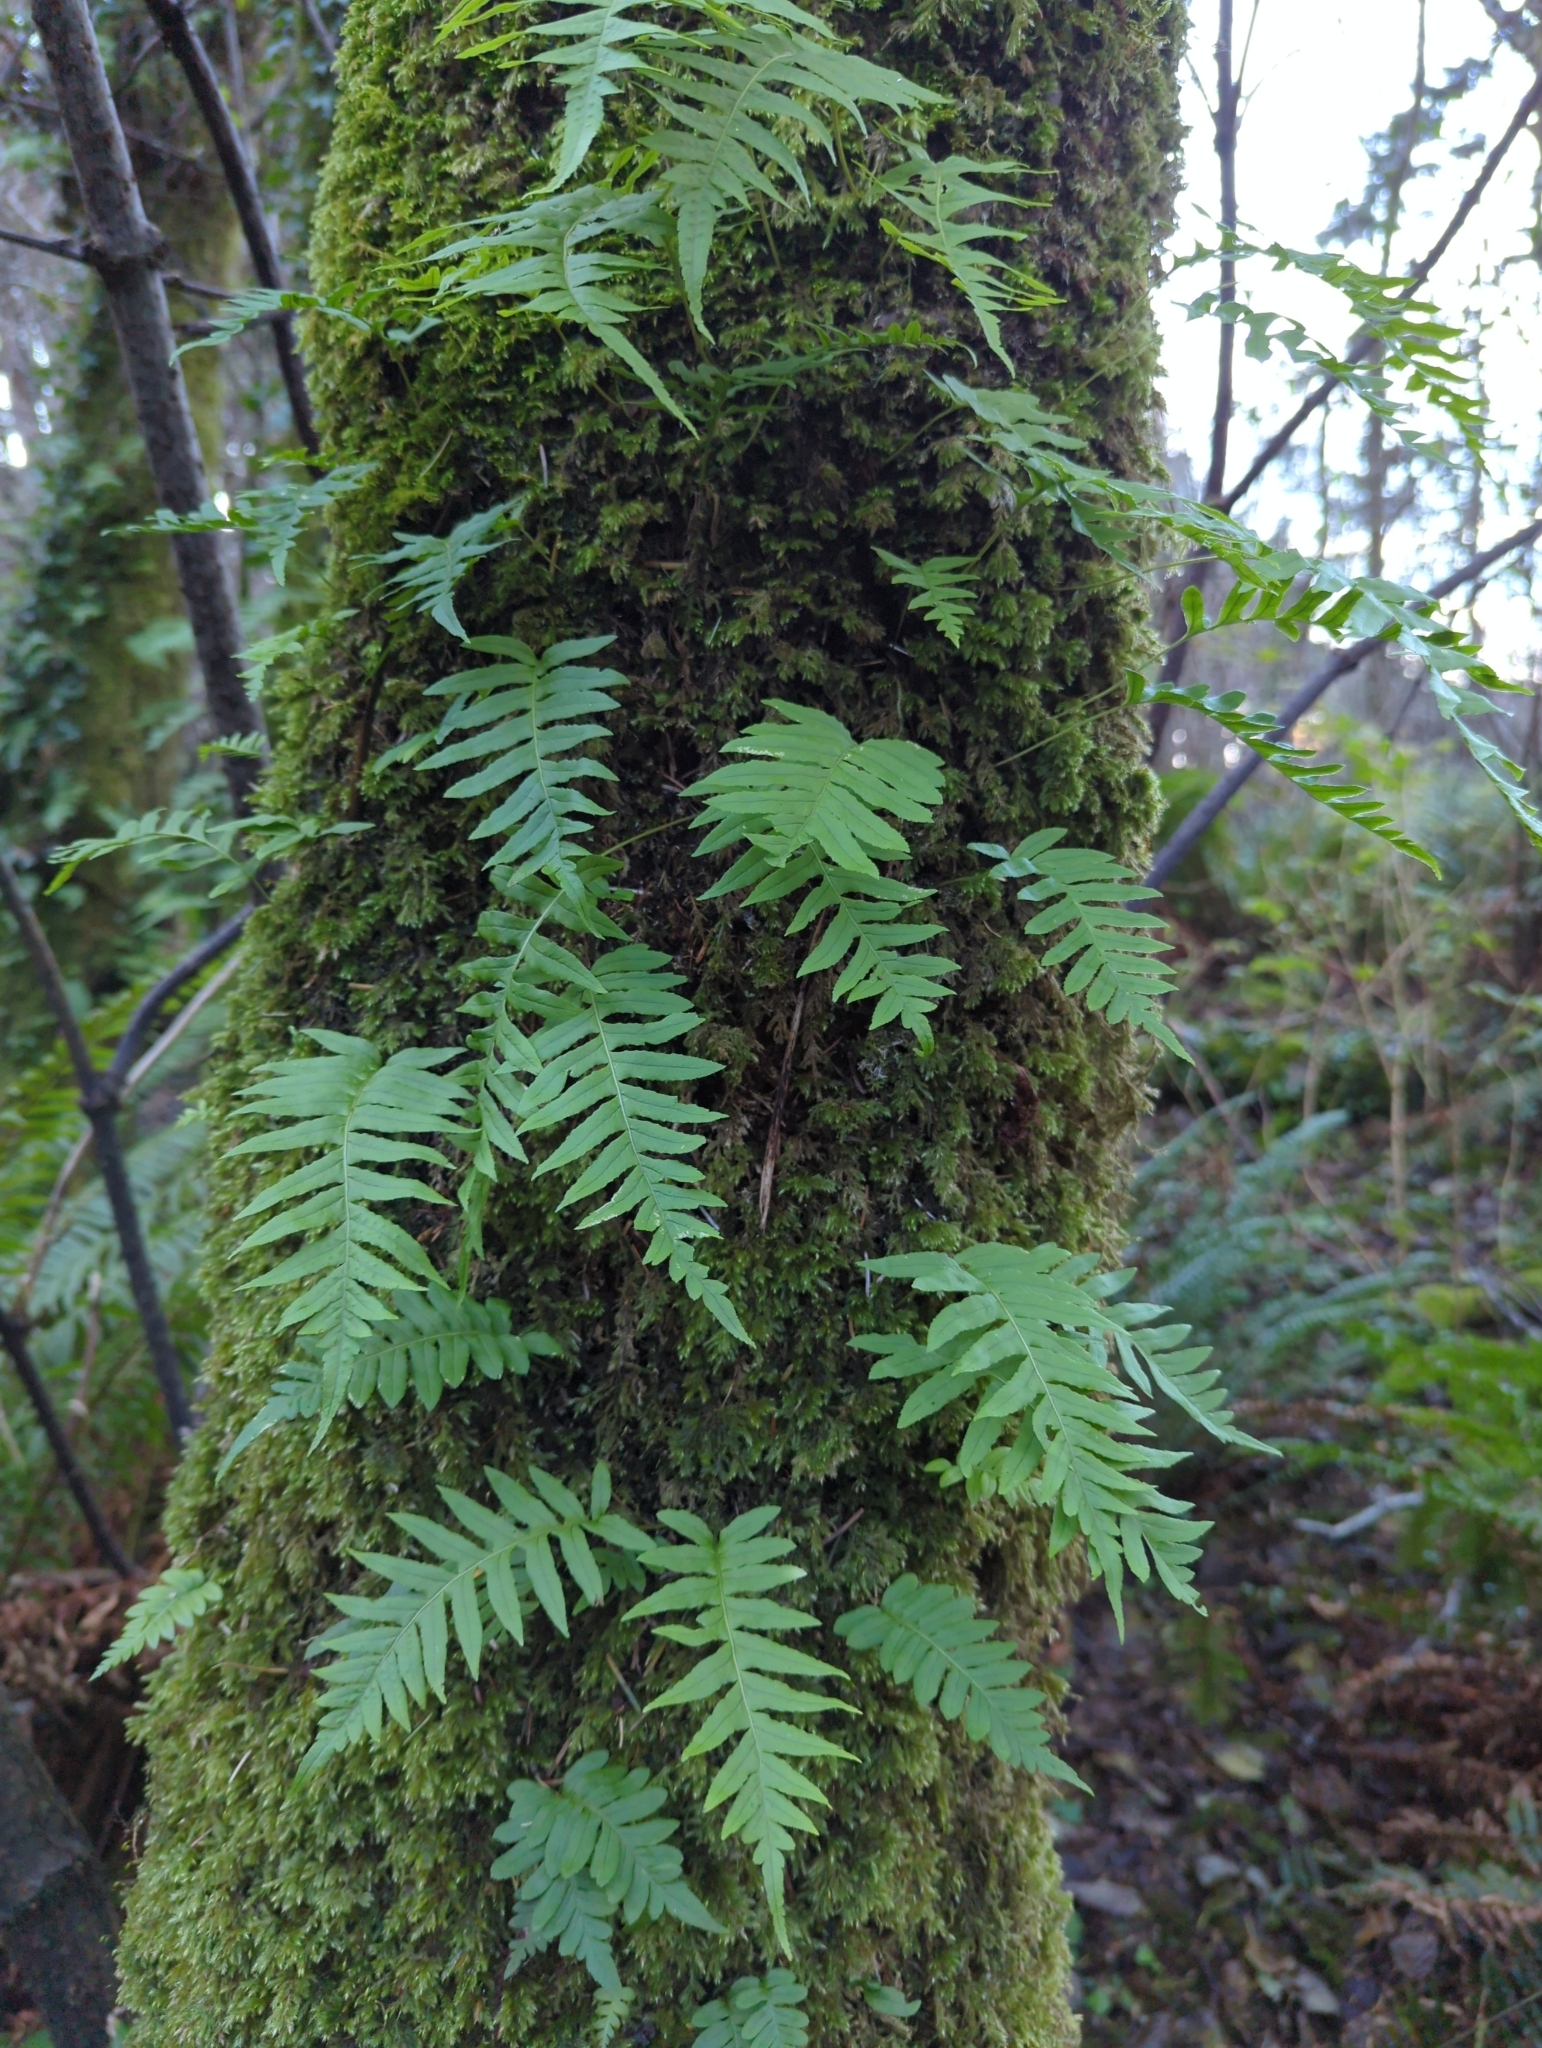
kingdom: Plantae
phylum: Tracheophyta
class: Polypodiopsida
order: Polypodiales
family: Polypodiaceae
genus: Polypodium
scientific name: Polypodium glycyrrhiza
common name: Licorice fern
